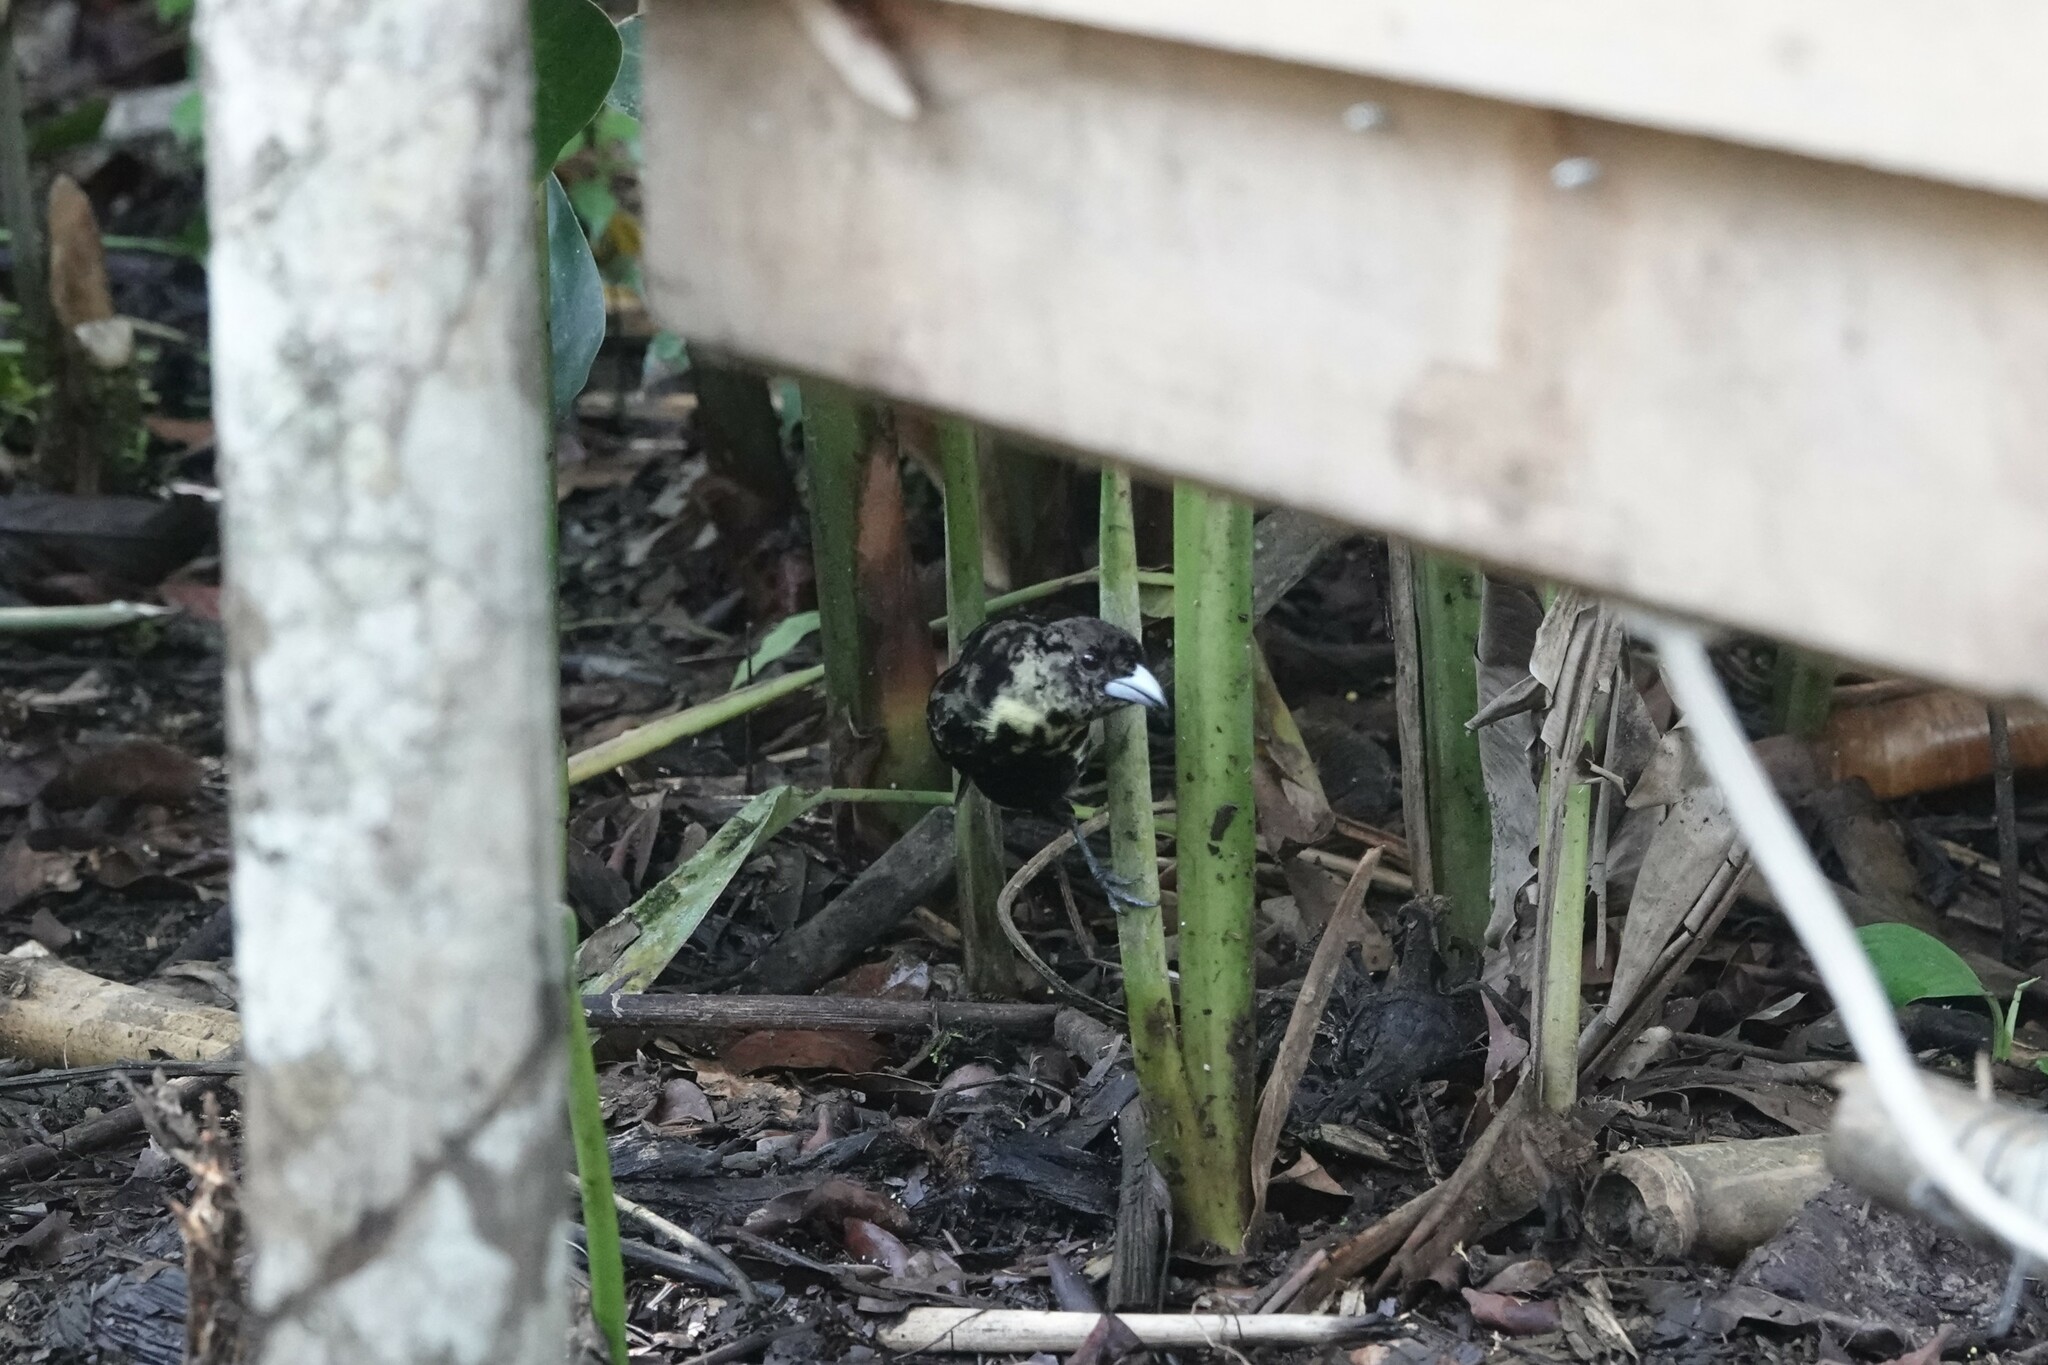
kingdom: Animalia
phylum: Chordata
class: Aves
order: Passeriformes
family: Thraupidae
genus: Ramphocelus
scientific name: Ramphocelus icteronotus
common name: Lemon-rumped tanager
